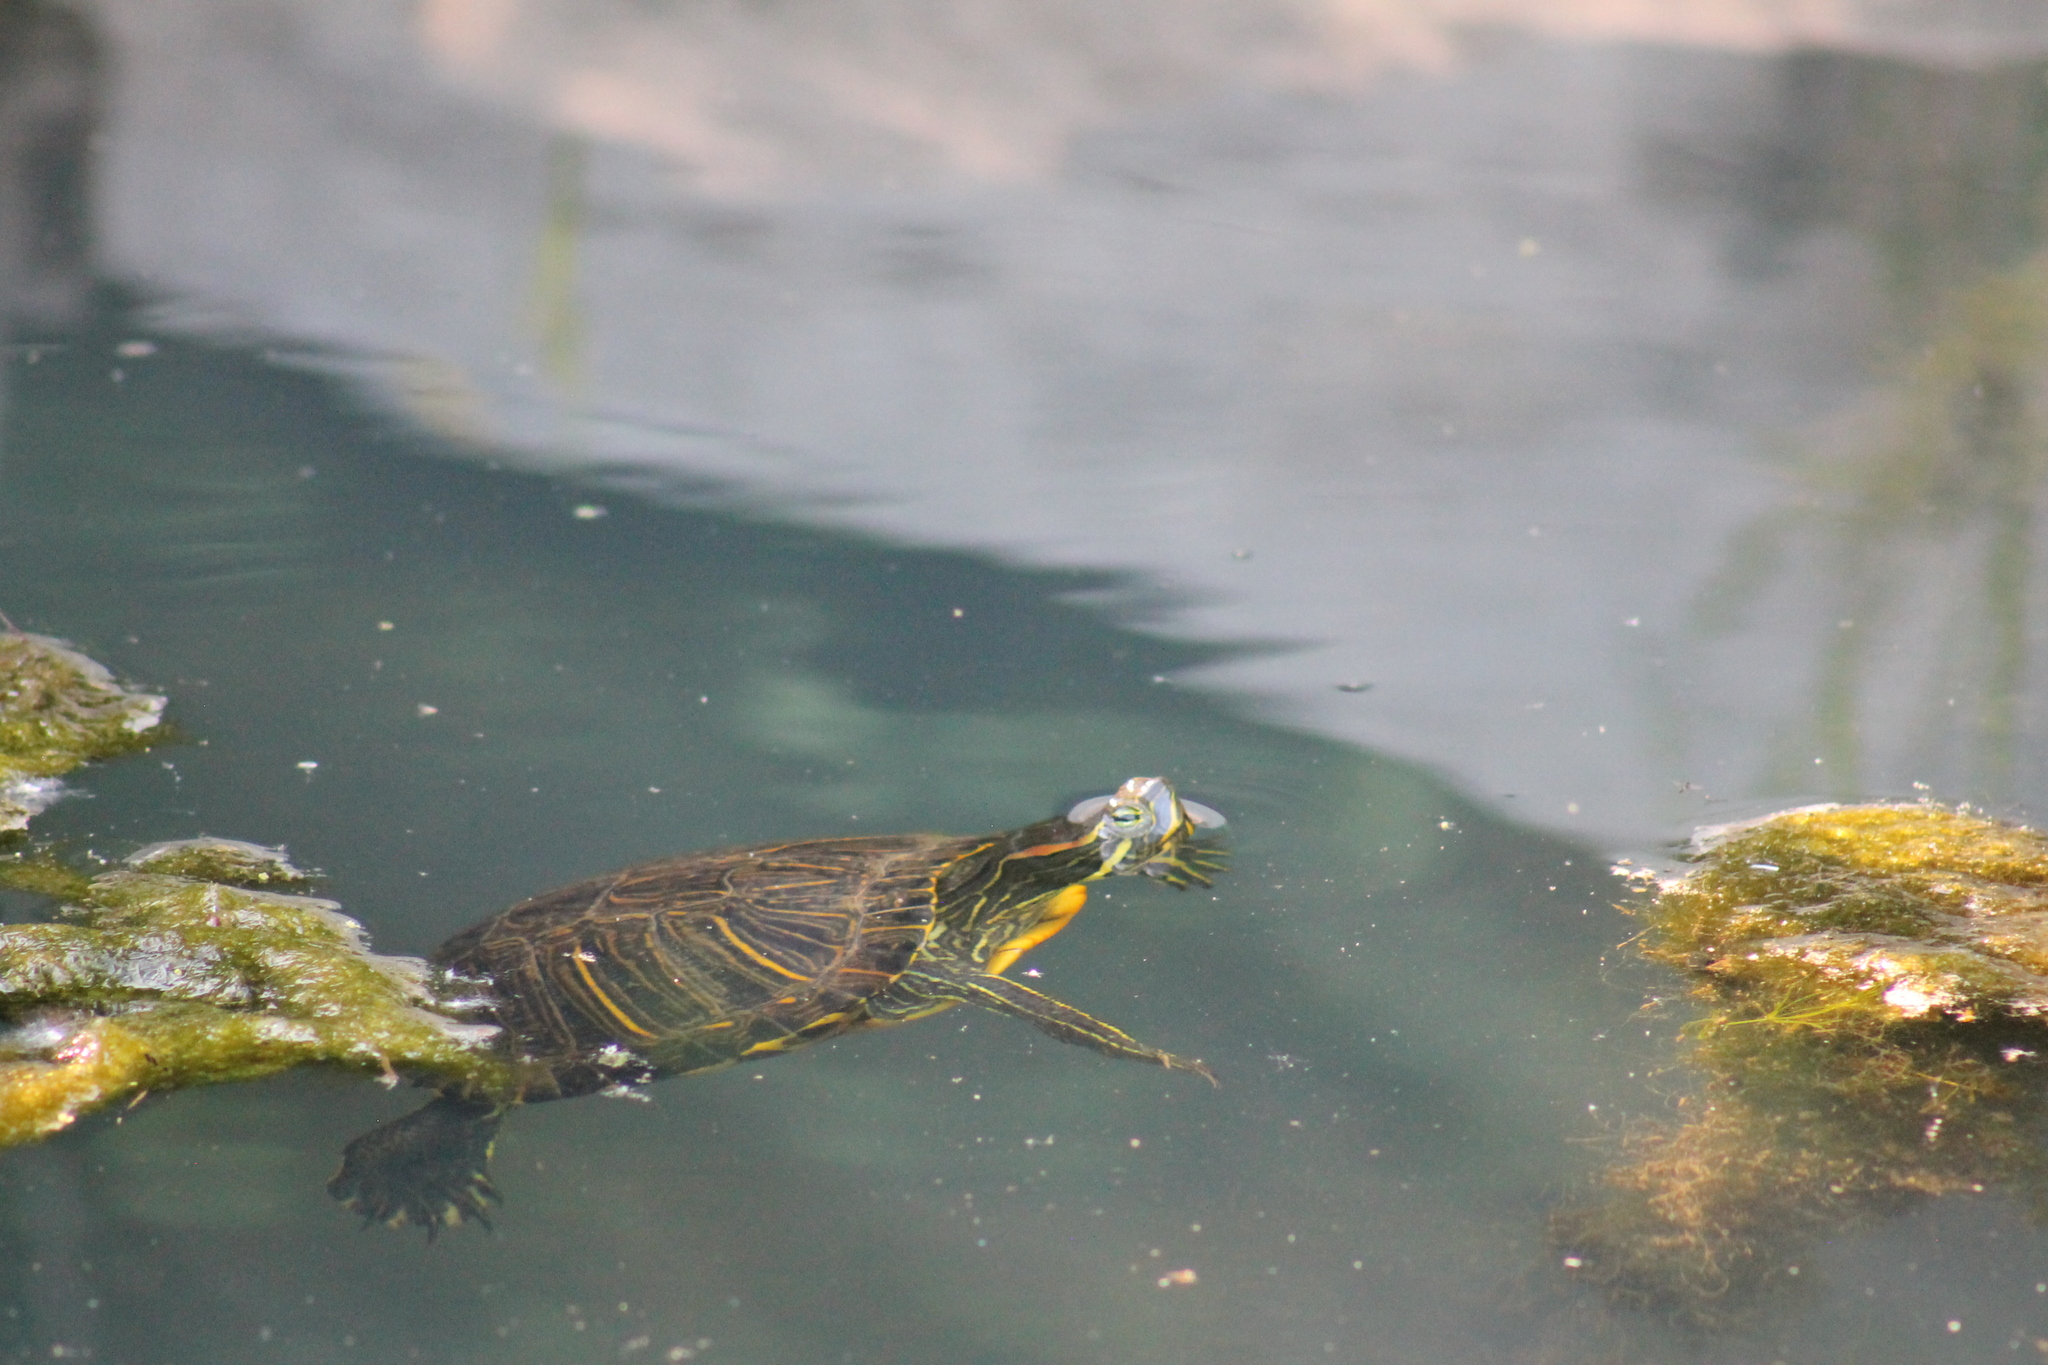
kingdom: Animalia
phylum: Chordata
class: Testudines
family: Emydidae
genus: Trachemys
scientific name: Trachemys scripta
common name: Slider
